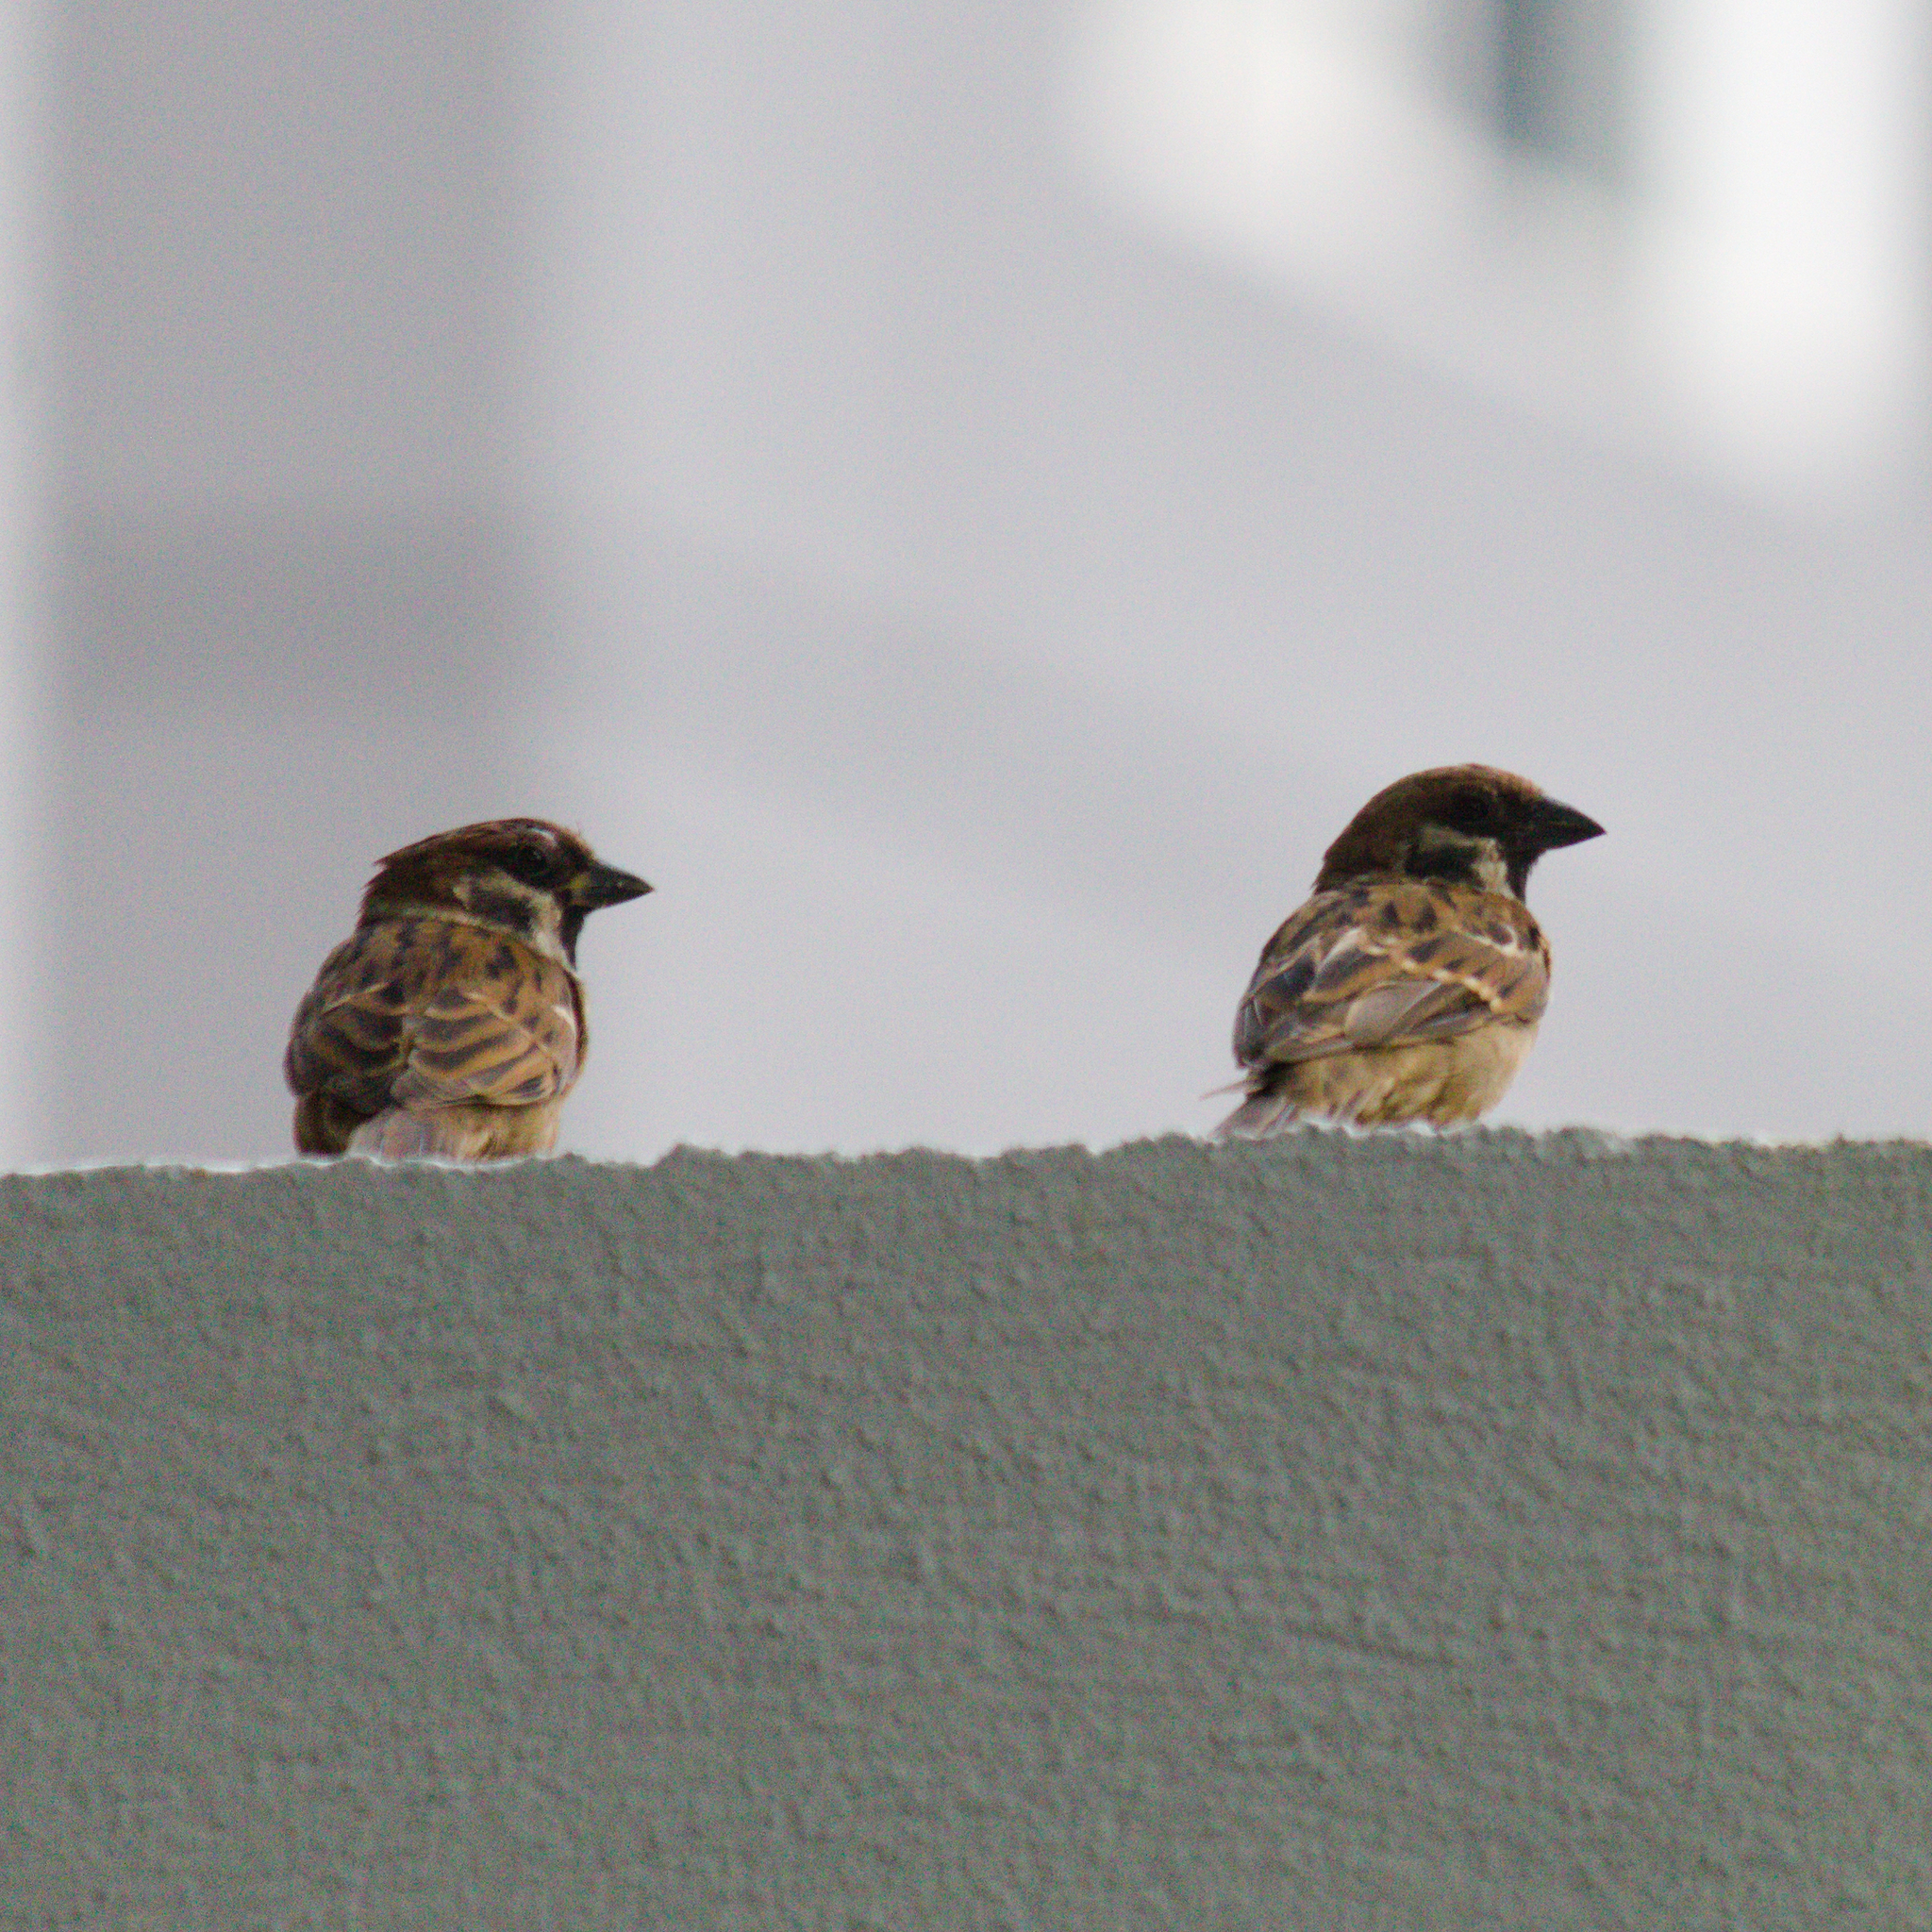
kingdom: Animalia
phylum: Chordata
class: Aves
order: Passeriformes
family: Passeridae
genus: Passer
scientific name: Passer montanus
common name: Eurasian tree sparrow
